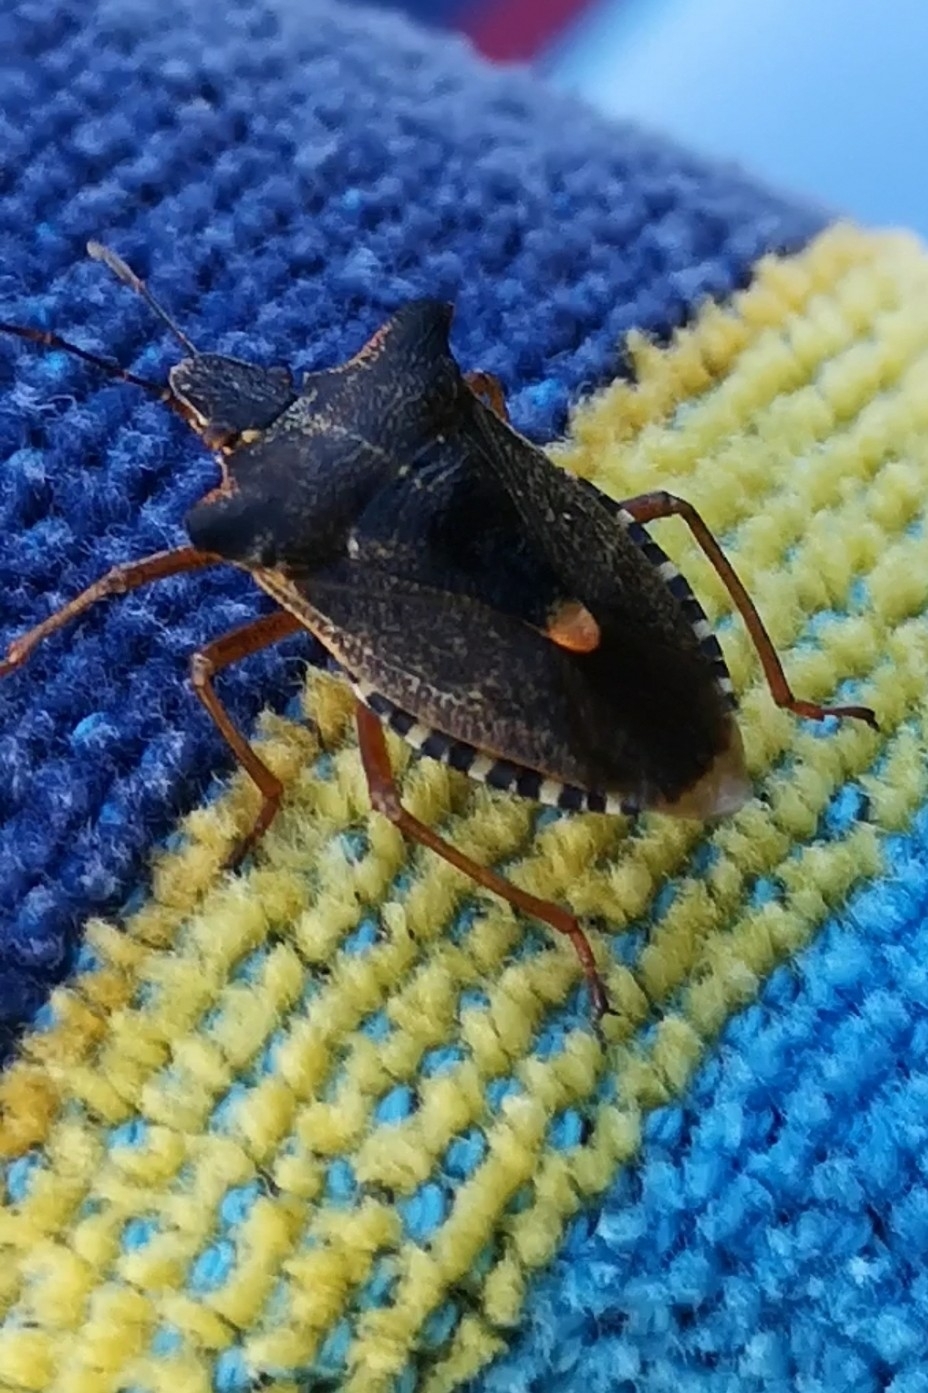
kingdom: Animalia
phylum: Arthropoda
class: Insecta
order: Hemiptera
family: Pentatomidae
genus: Pentatoma
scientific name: Pentatoma rufipes
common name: Forest bug
